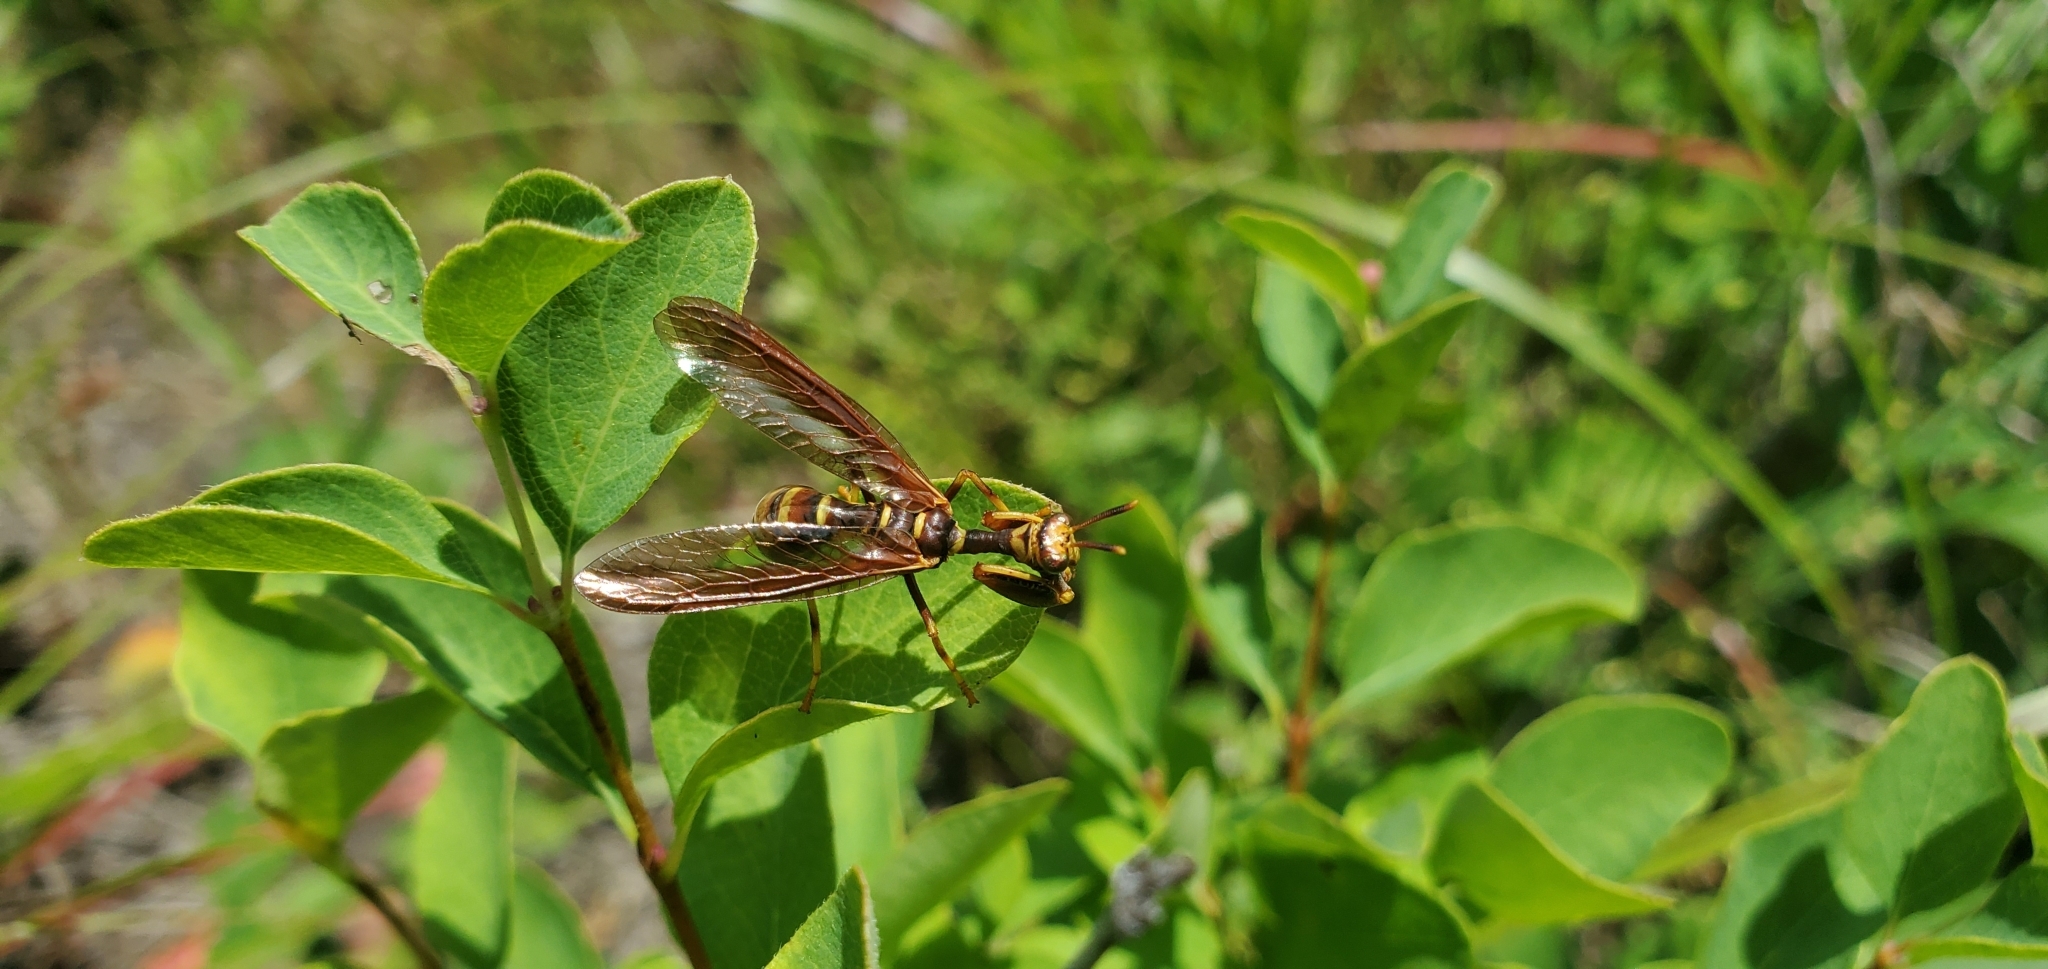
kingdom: Animalia
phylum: Arthropoda
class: Insecta
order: Neuroptera
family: Mantispidae
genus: Climaciella
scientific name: Climaciella brunnea
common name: Brown wasp mantidfly
